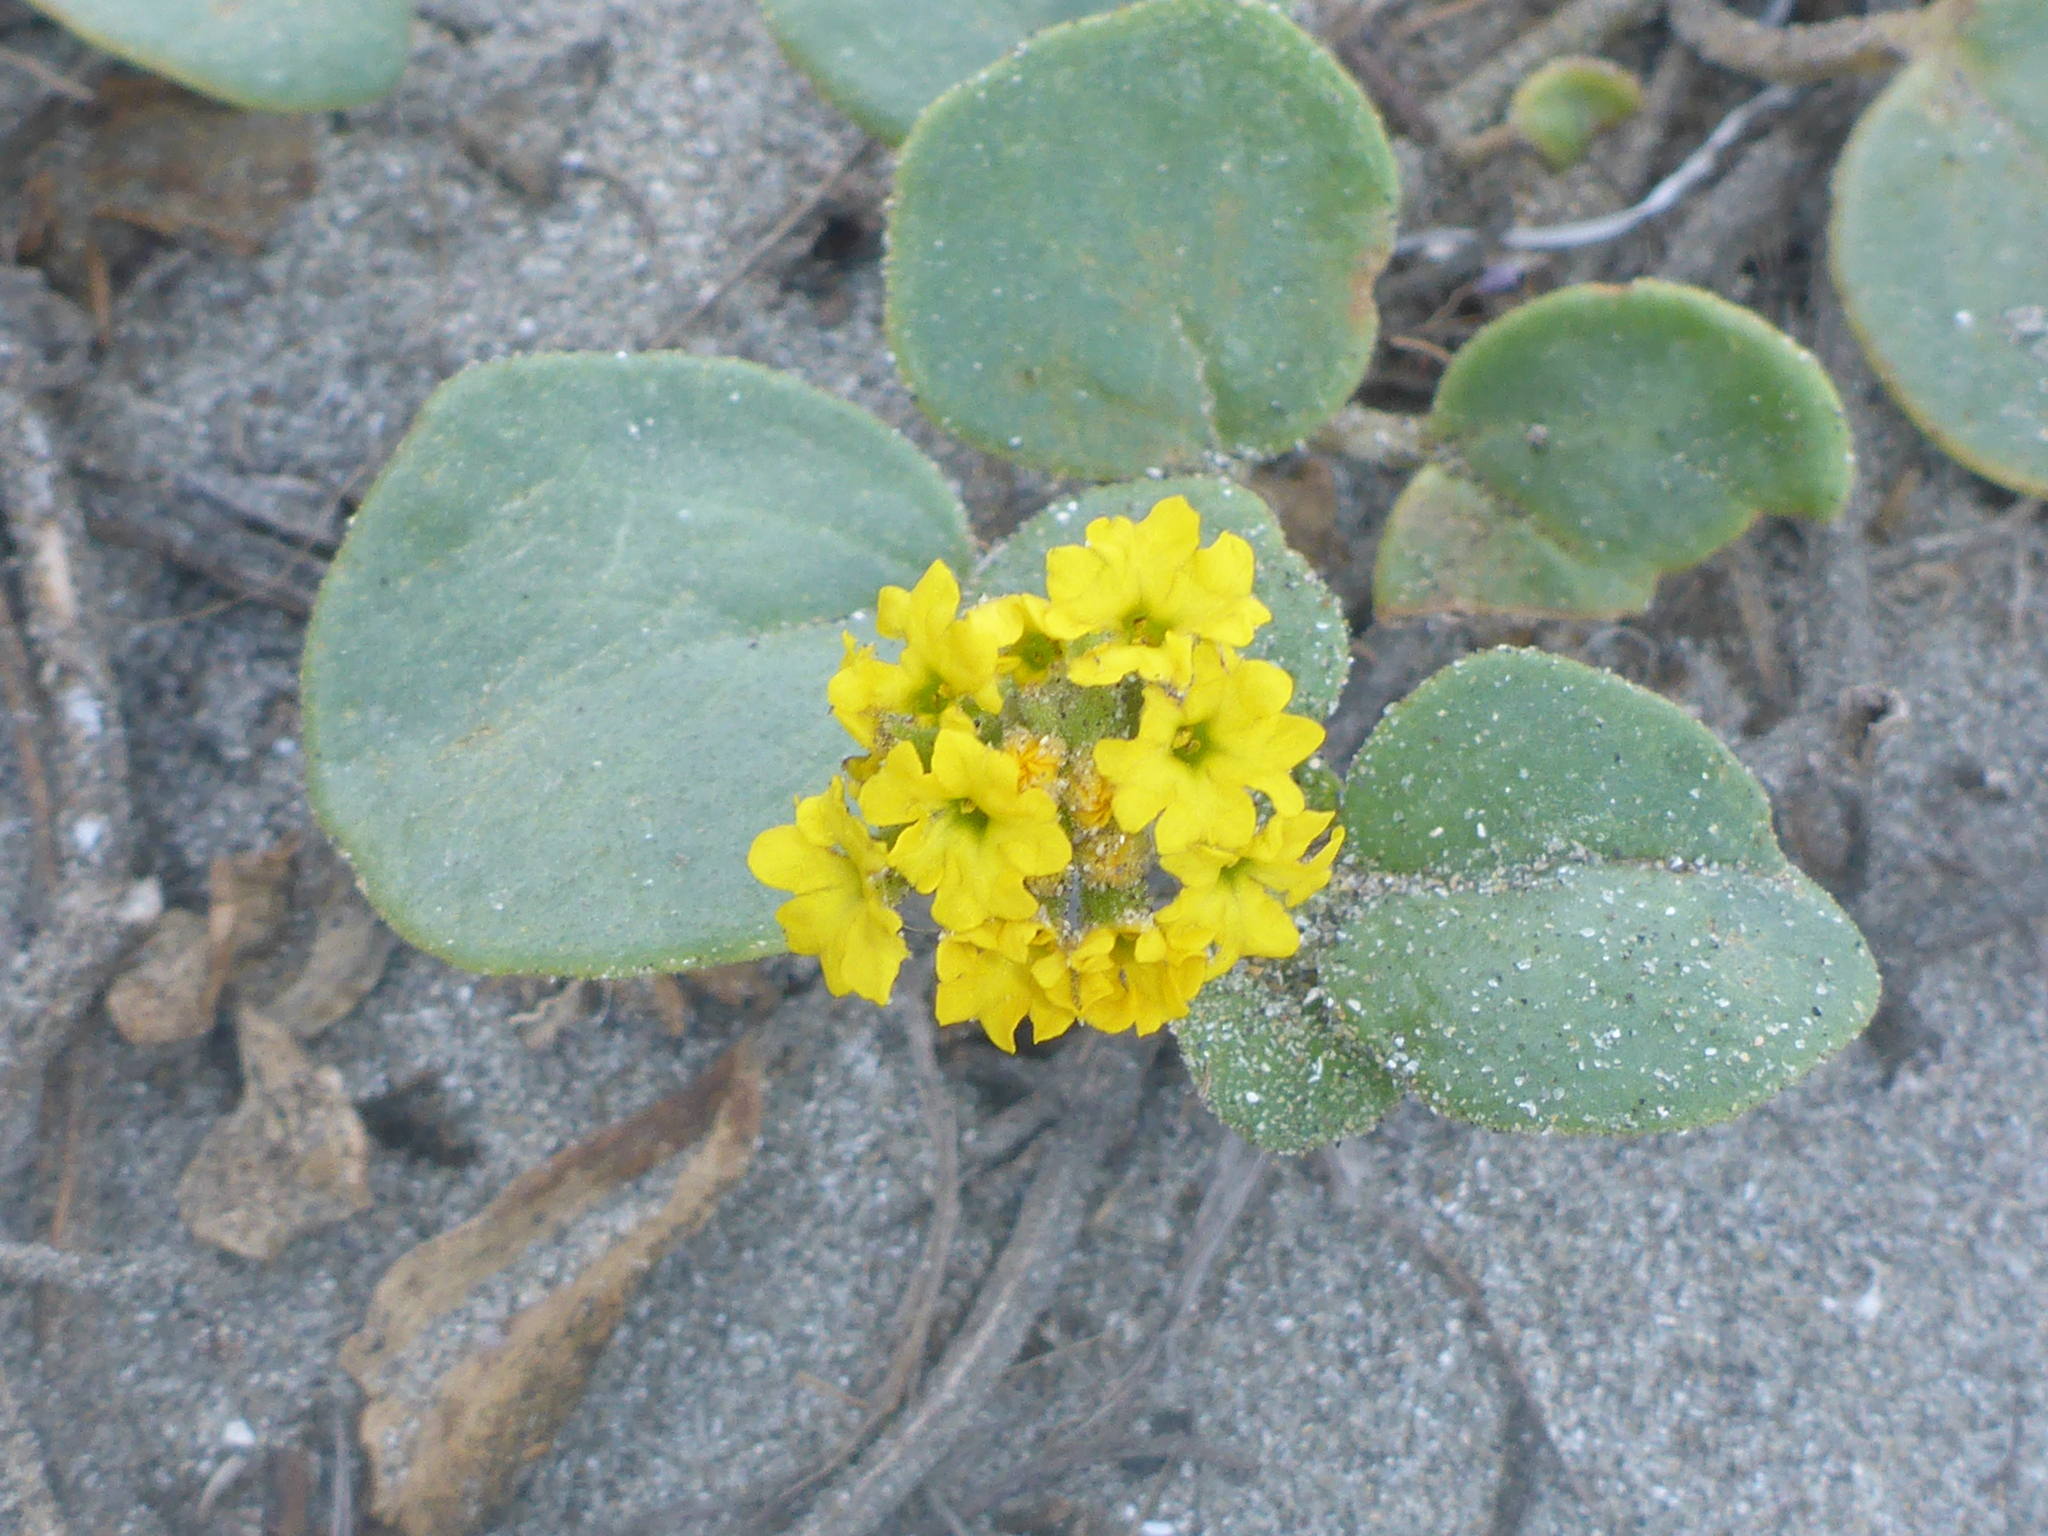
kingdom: Plantae
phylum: Tracheophyta
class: Magnoliopsida
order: Caryophyllales
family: Nyctaginaceae
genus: Abronia
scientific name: Abronia latifolia
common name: Yellow sand-verbena
